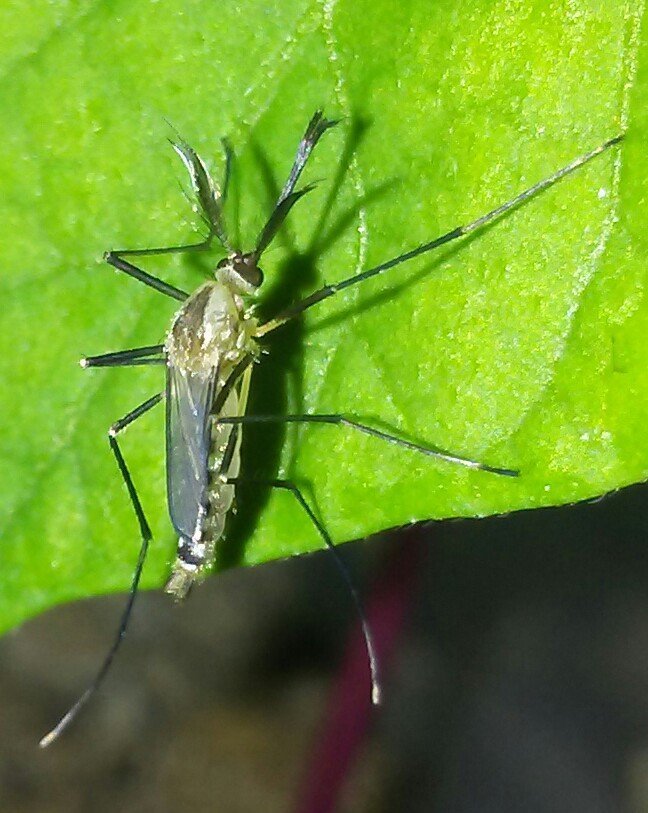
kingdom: Animalia
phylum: Arthropoda
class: Insecta
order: Diptera
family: Culicidae
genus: Aedes
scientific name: Aedes triseriatus
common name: Eastern treehole mosquito
